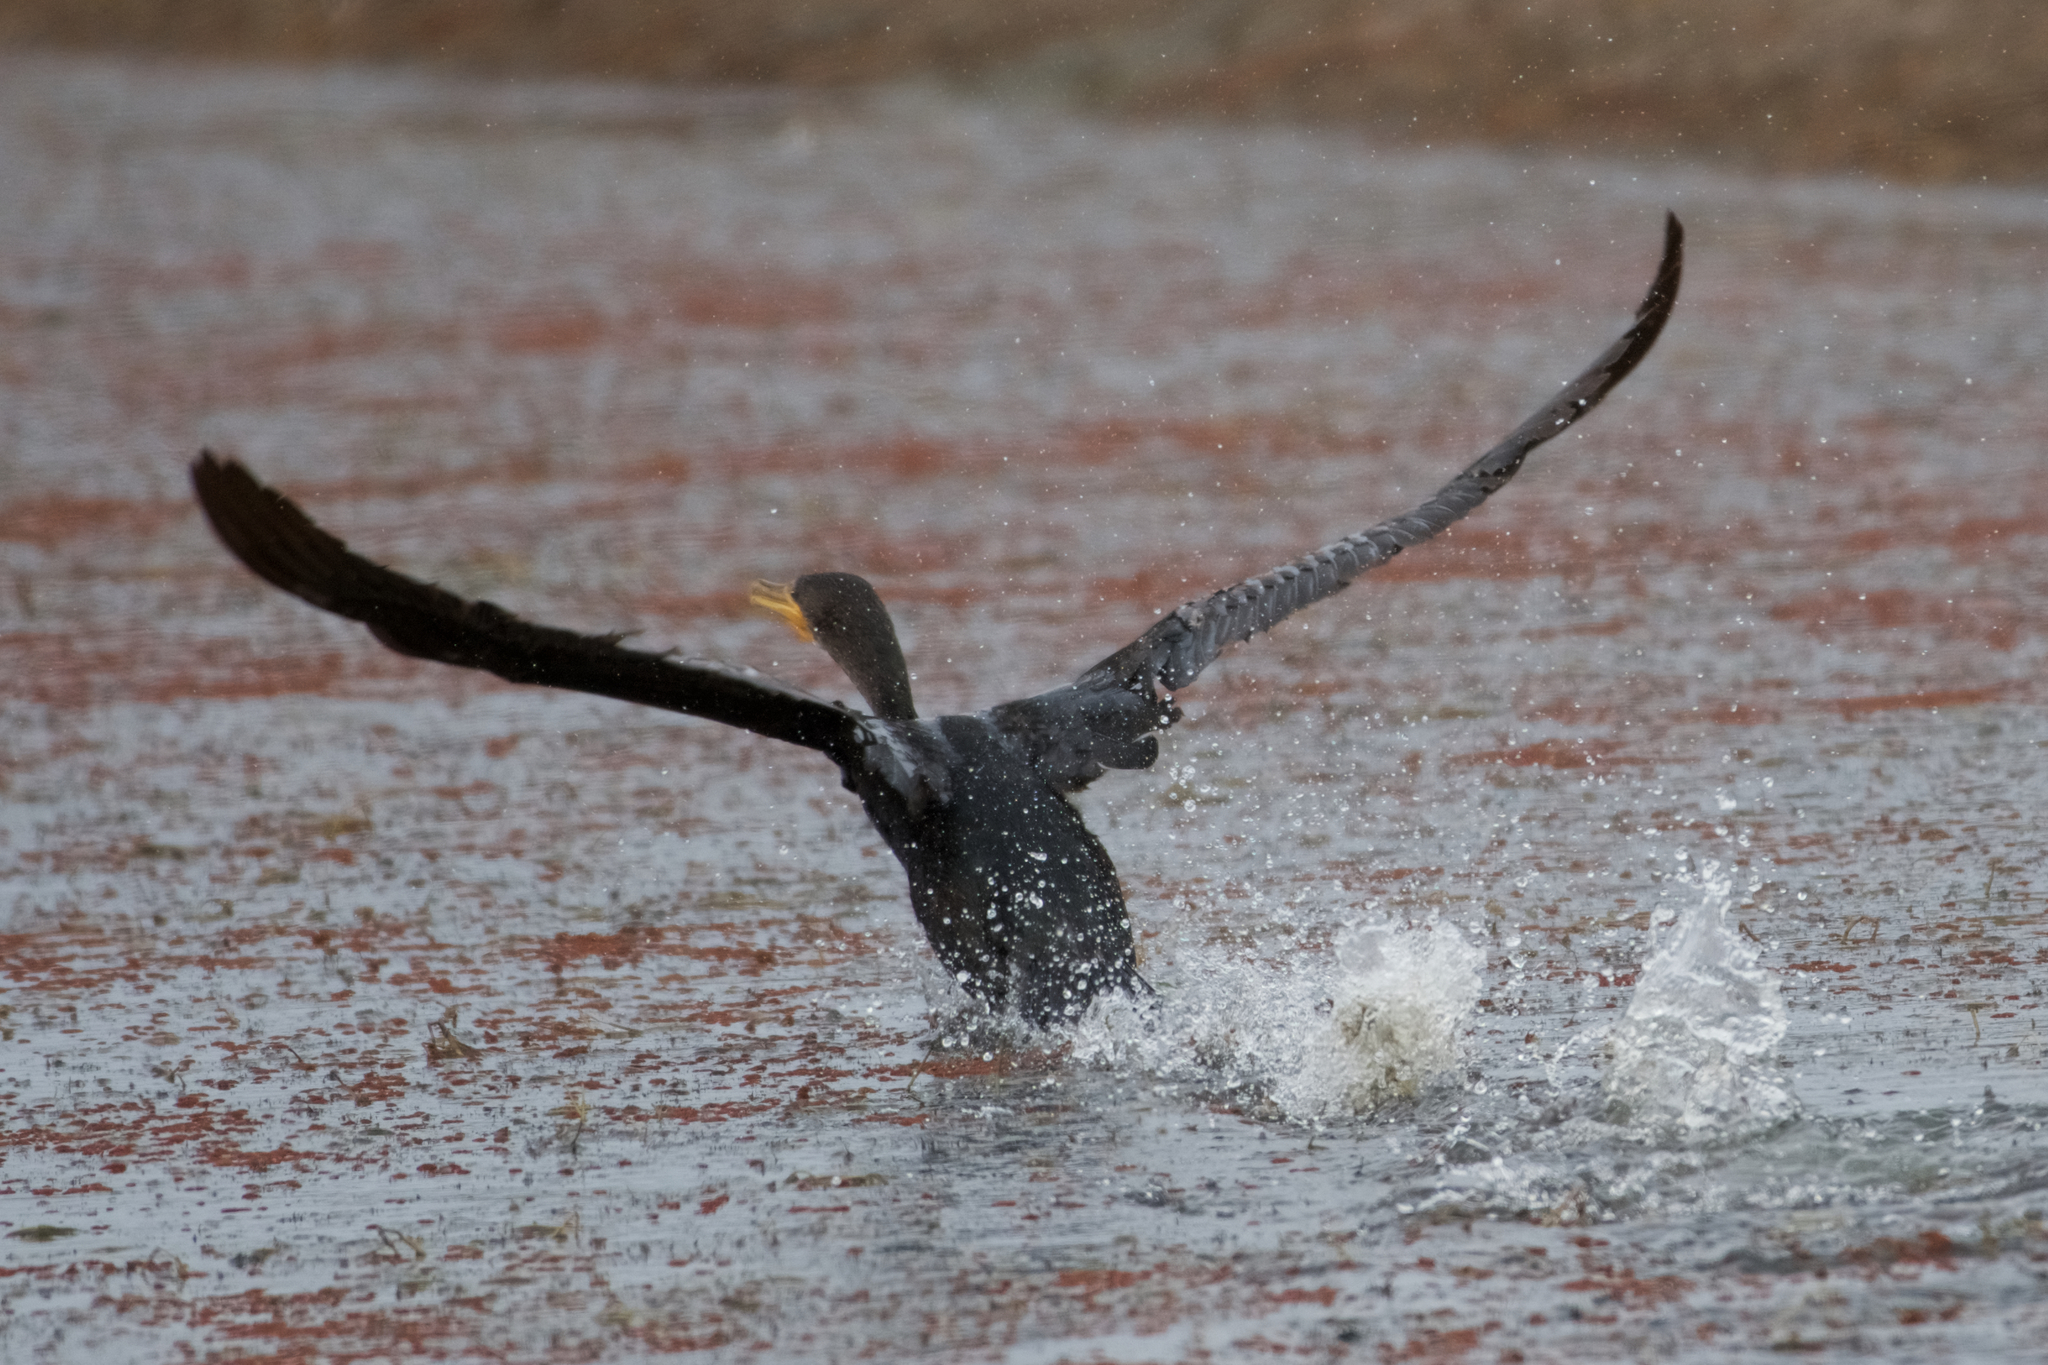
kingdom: Animalia
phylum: Chordata
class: Aves
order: Suliformes
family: Phalacrocoracidae
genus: Phalacrocorax
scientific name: Phalacrocorax auritus
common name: Double-crested cormorant
